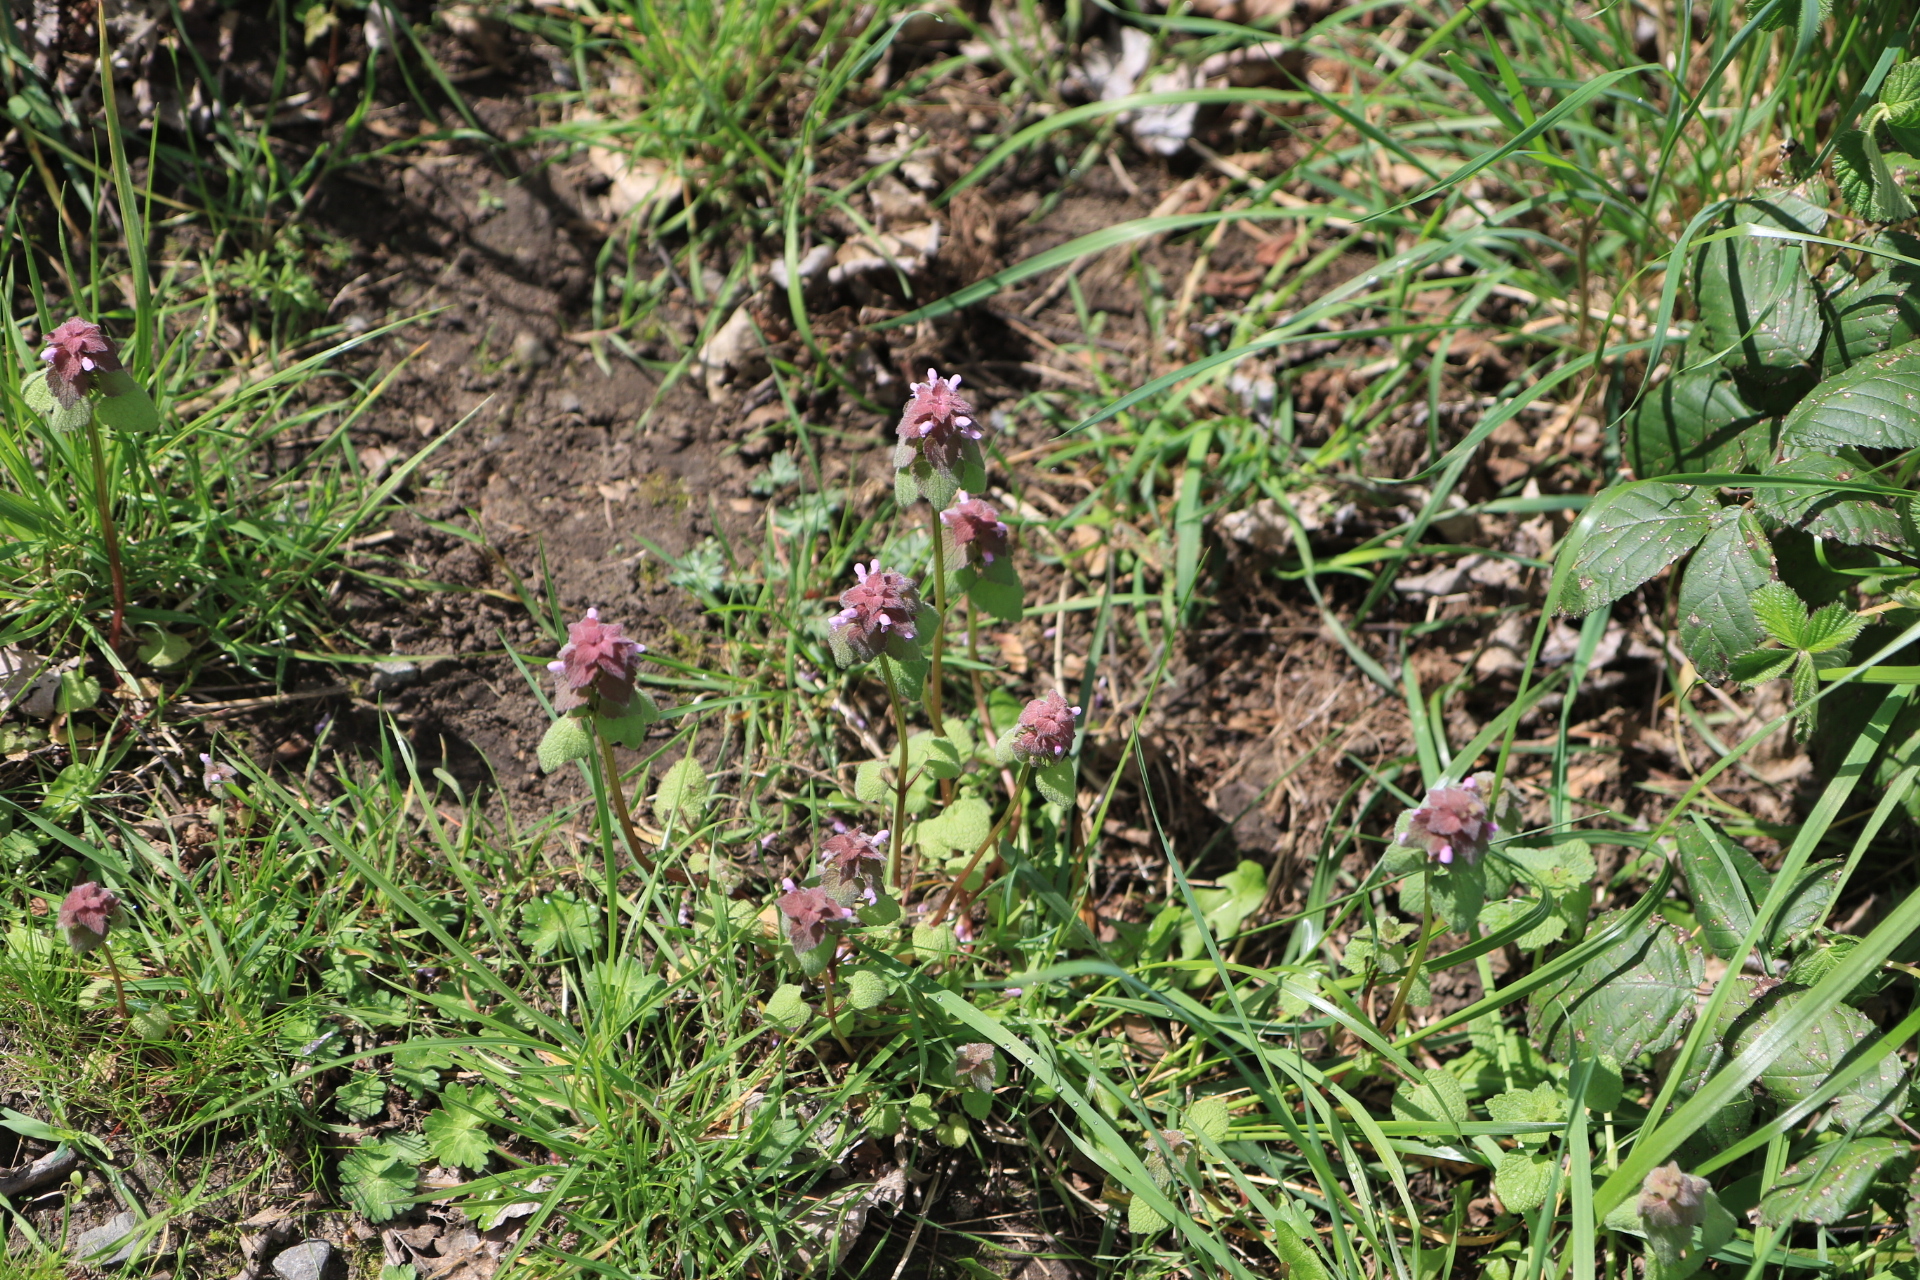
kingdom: Plantae
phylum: Tracheophyta
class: Magnoliopsida
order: Lamiales
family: Lamiaceae
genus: Lamium
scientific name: Lamium purpureum
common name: Red dead-nettle
